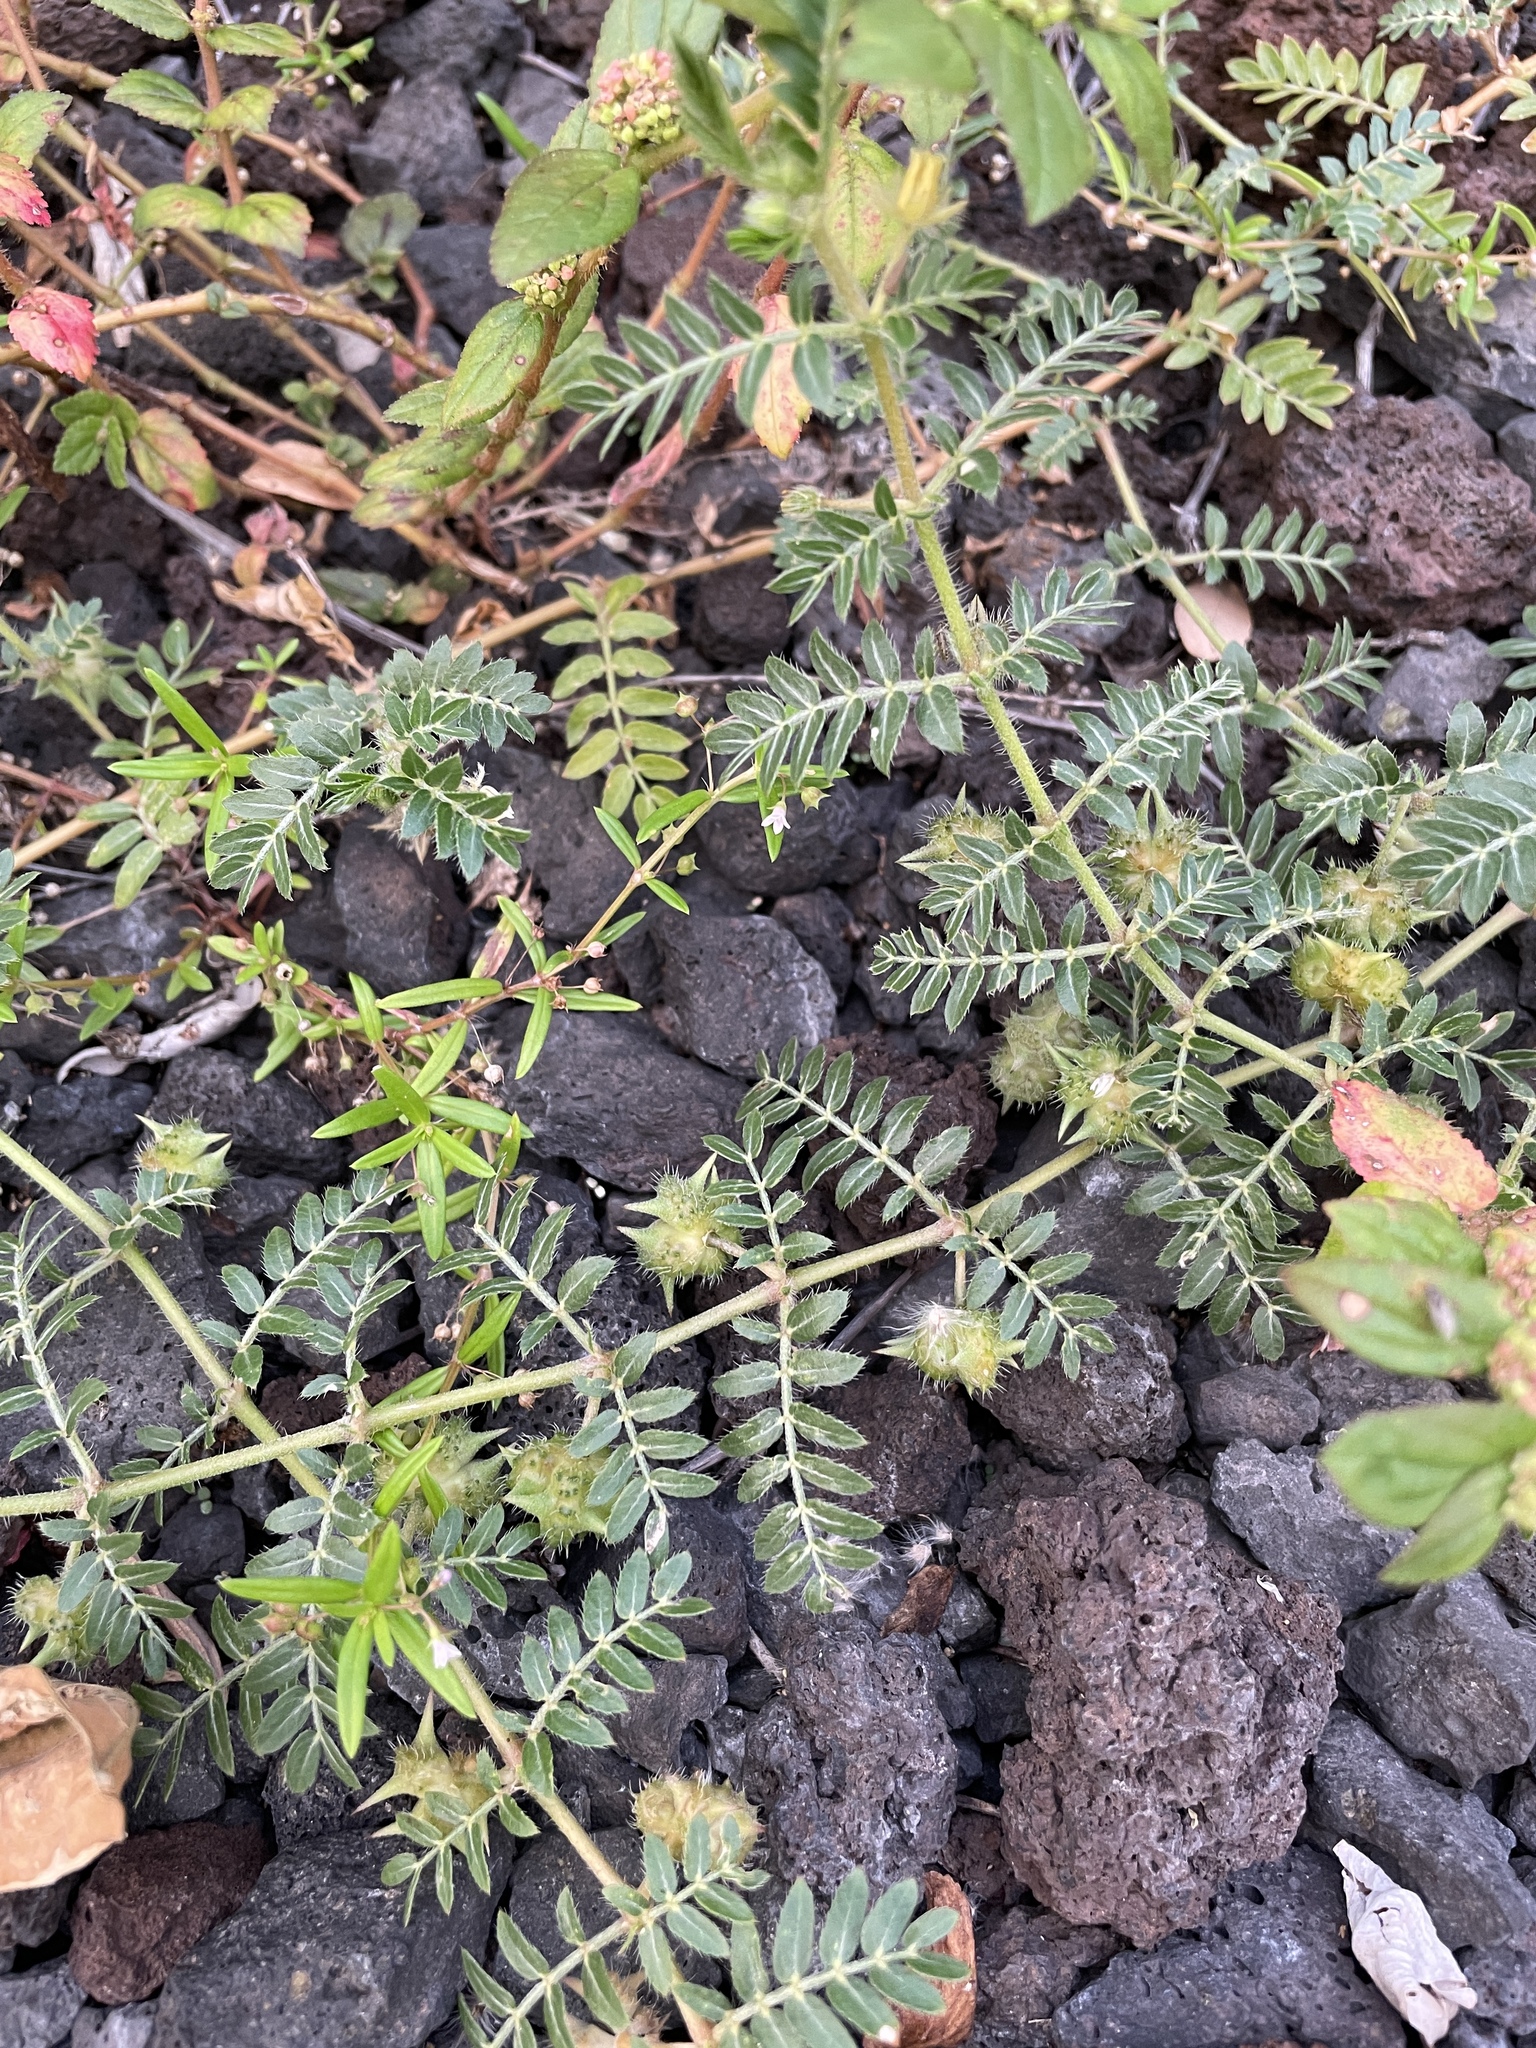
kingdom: Plantae
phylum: Tracheophyta
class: Magnoliopsida
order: Zygophyllales
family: Zygophyllaceae
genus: Tribulus
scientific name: Tribulus terrestris
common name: Puncturevine
